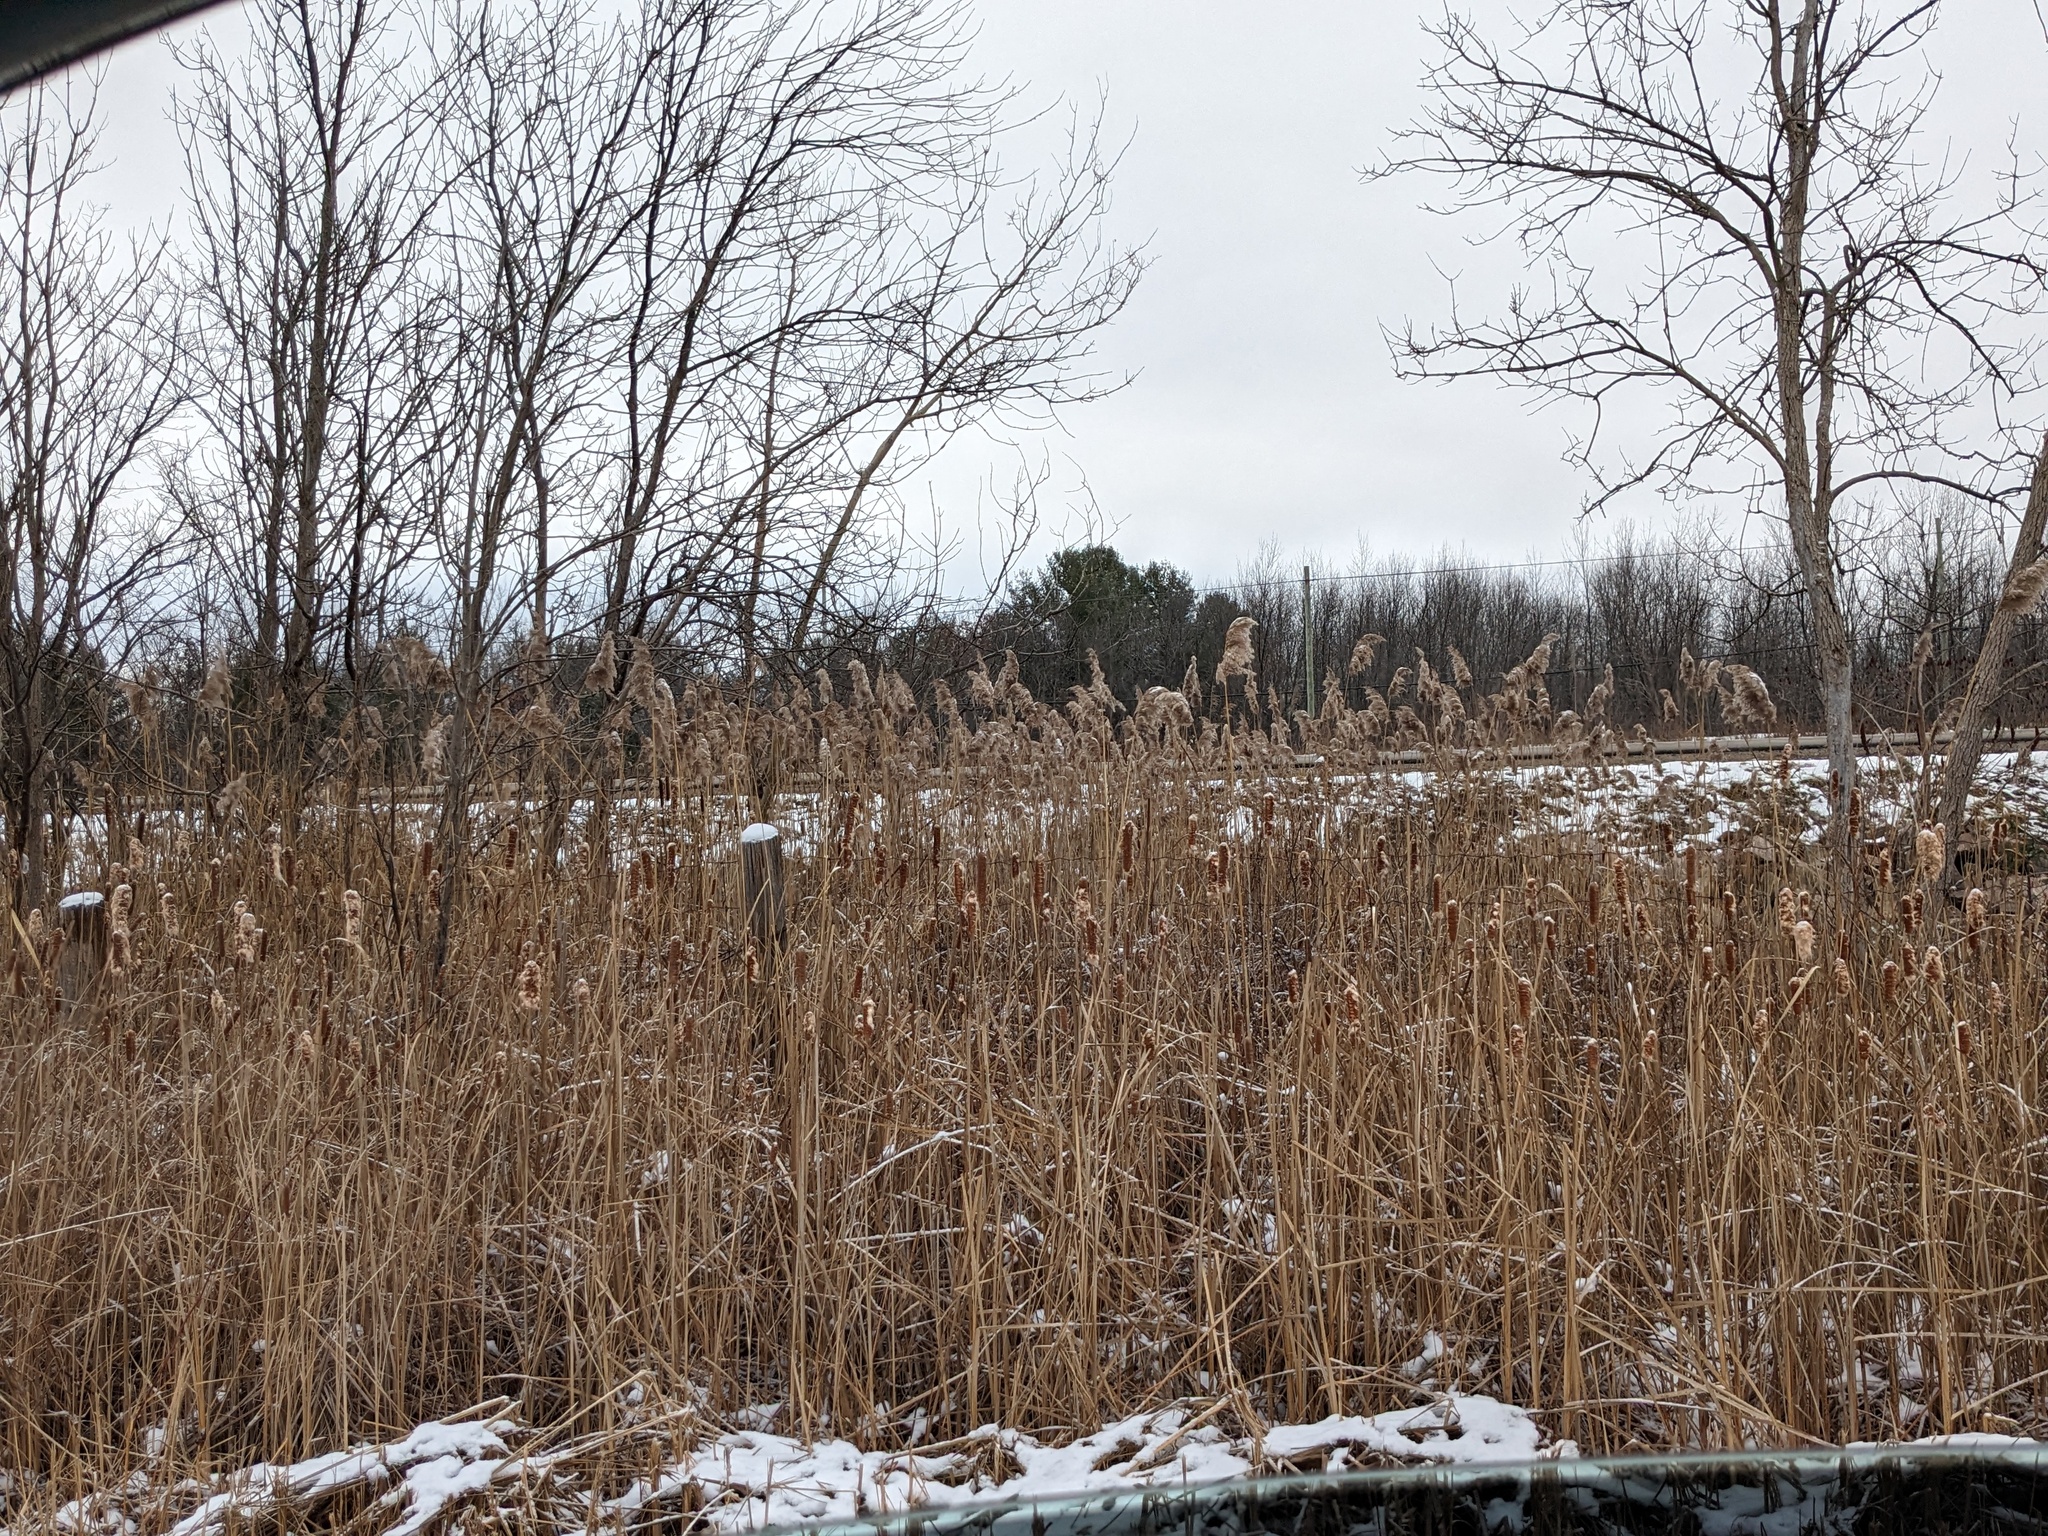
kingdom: Plantae
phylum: Tracheophyta
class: Liliopsida
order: Poales
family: Poaceae
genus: Phragmites
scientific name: Phragmites australis
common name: Common reed
